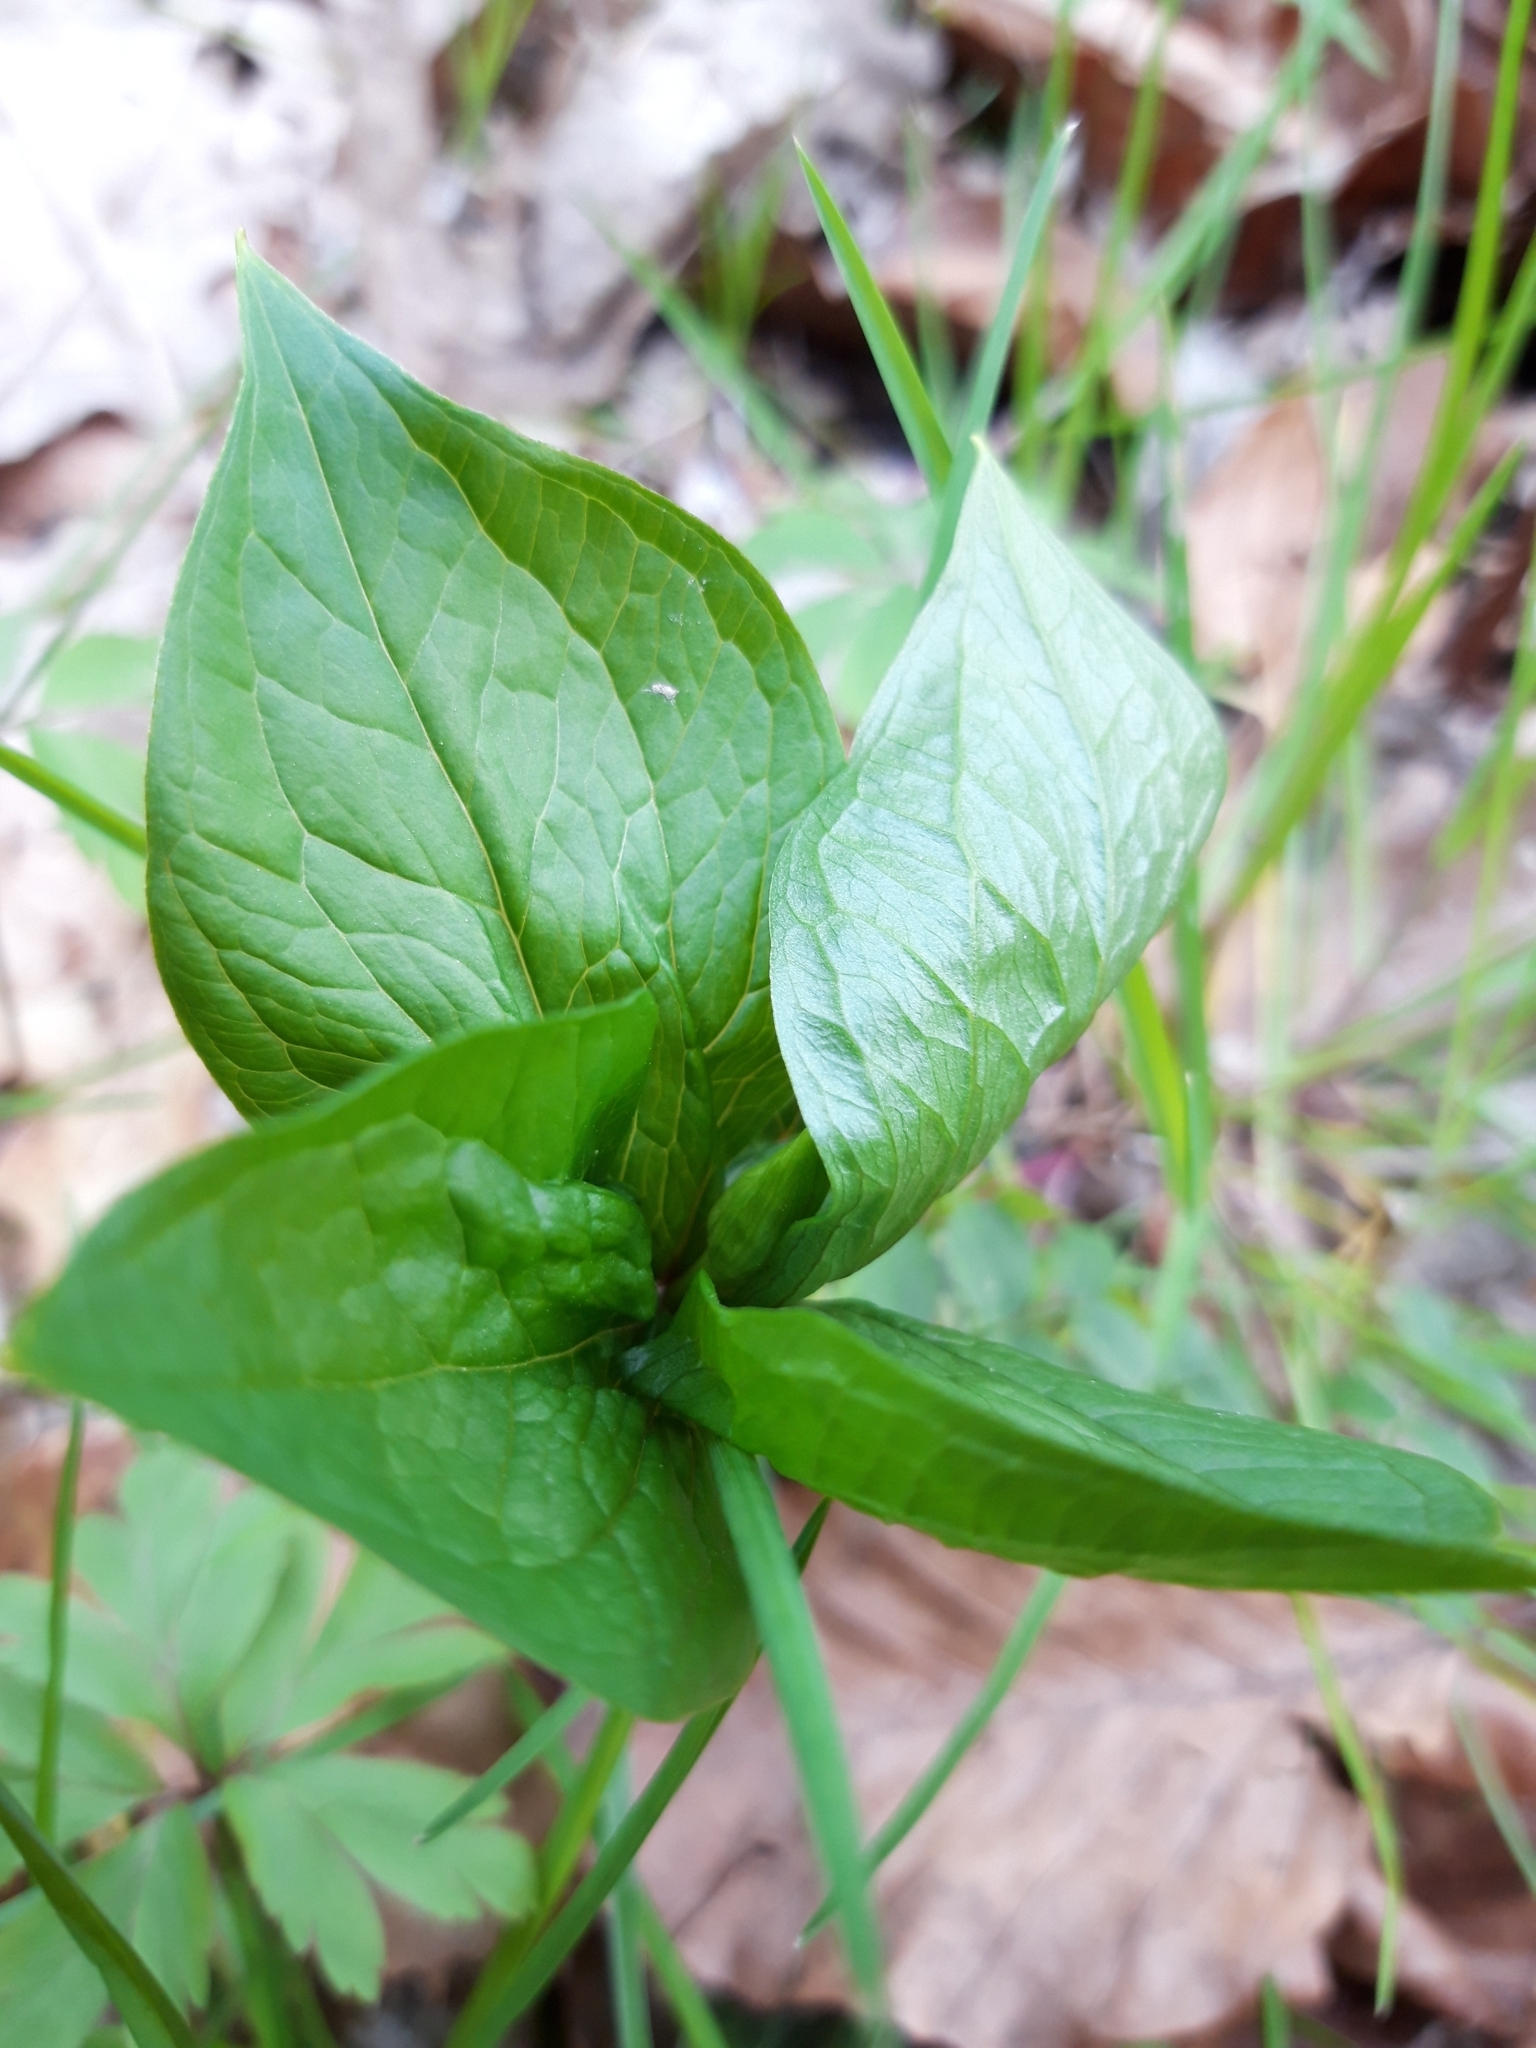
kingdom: Plantae
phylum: Tracheophyta
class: Liliopsida
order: Liliales
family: Melanthiaceae
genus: Paris
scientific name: Paris quadrifolia
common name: Herb-paris
